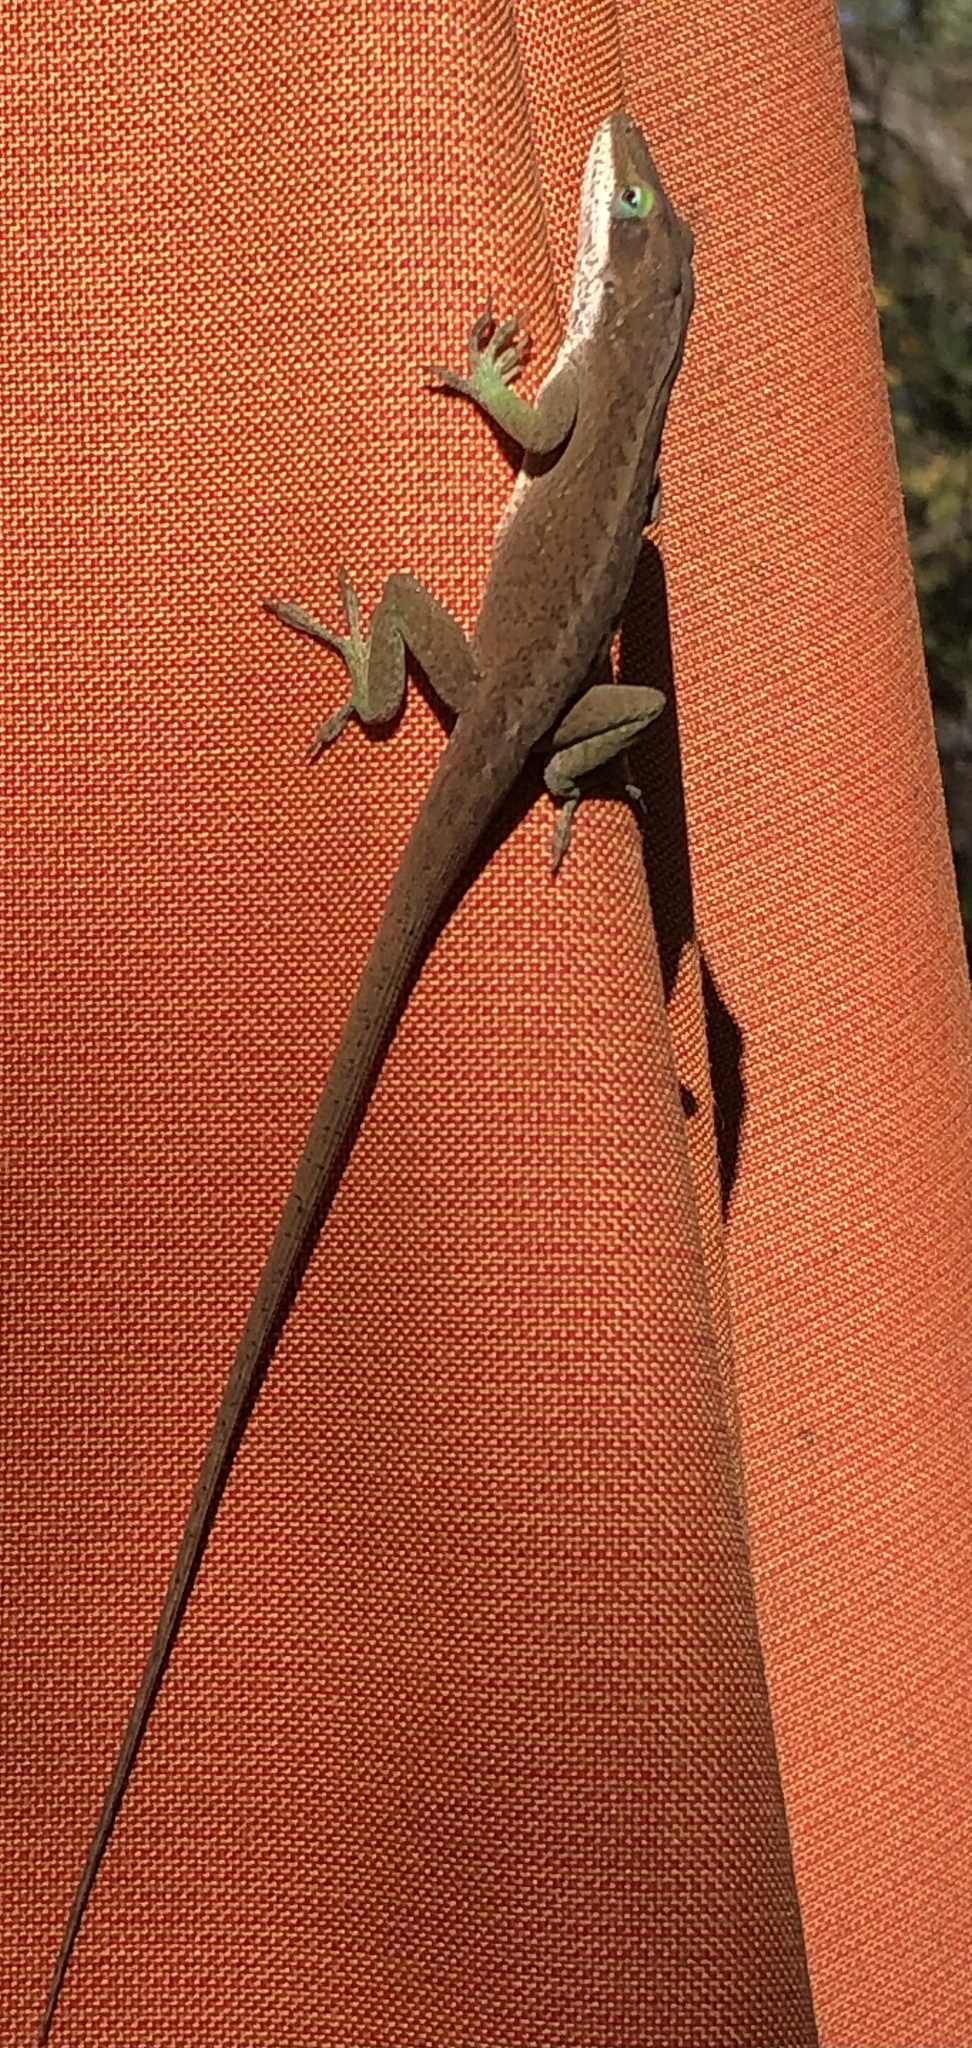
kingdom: Animalia
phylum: Chordata
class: Squamata
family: Dactyloidae
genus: Anolis
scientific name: Anolis carolinensis
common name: Green anole
